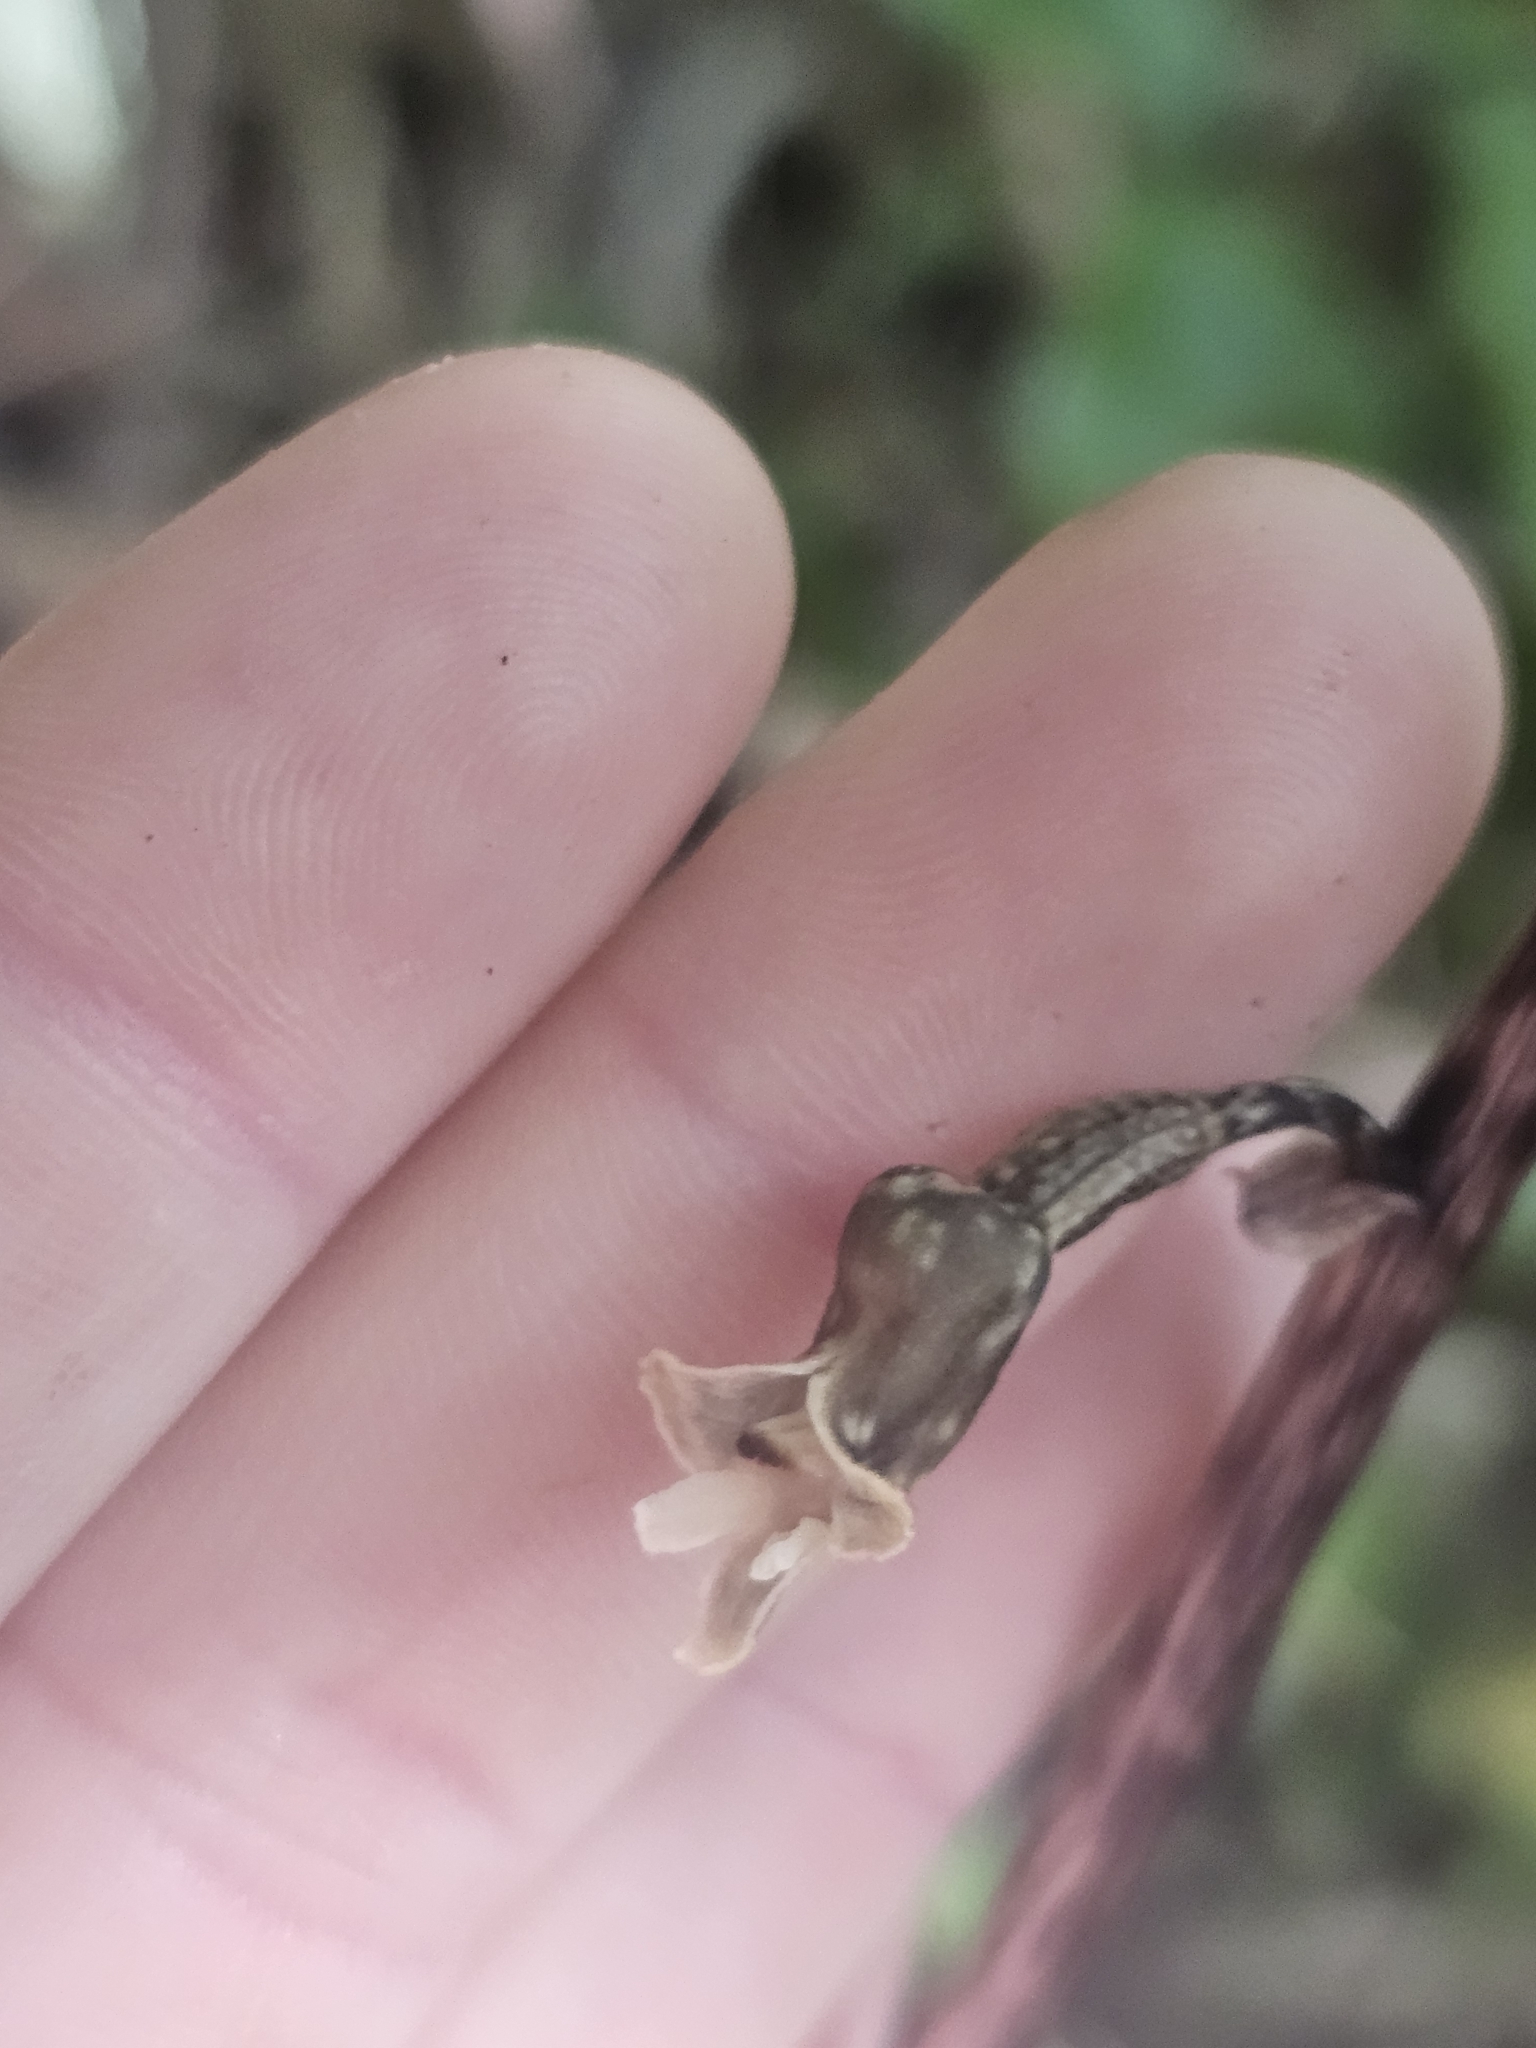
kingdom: Plantae
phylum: Tracheophyta
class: Liliopsida
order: Asparagales
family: Orchidaceae
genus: Gastrodia
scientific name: Gastrodia cunninghamii
